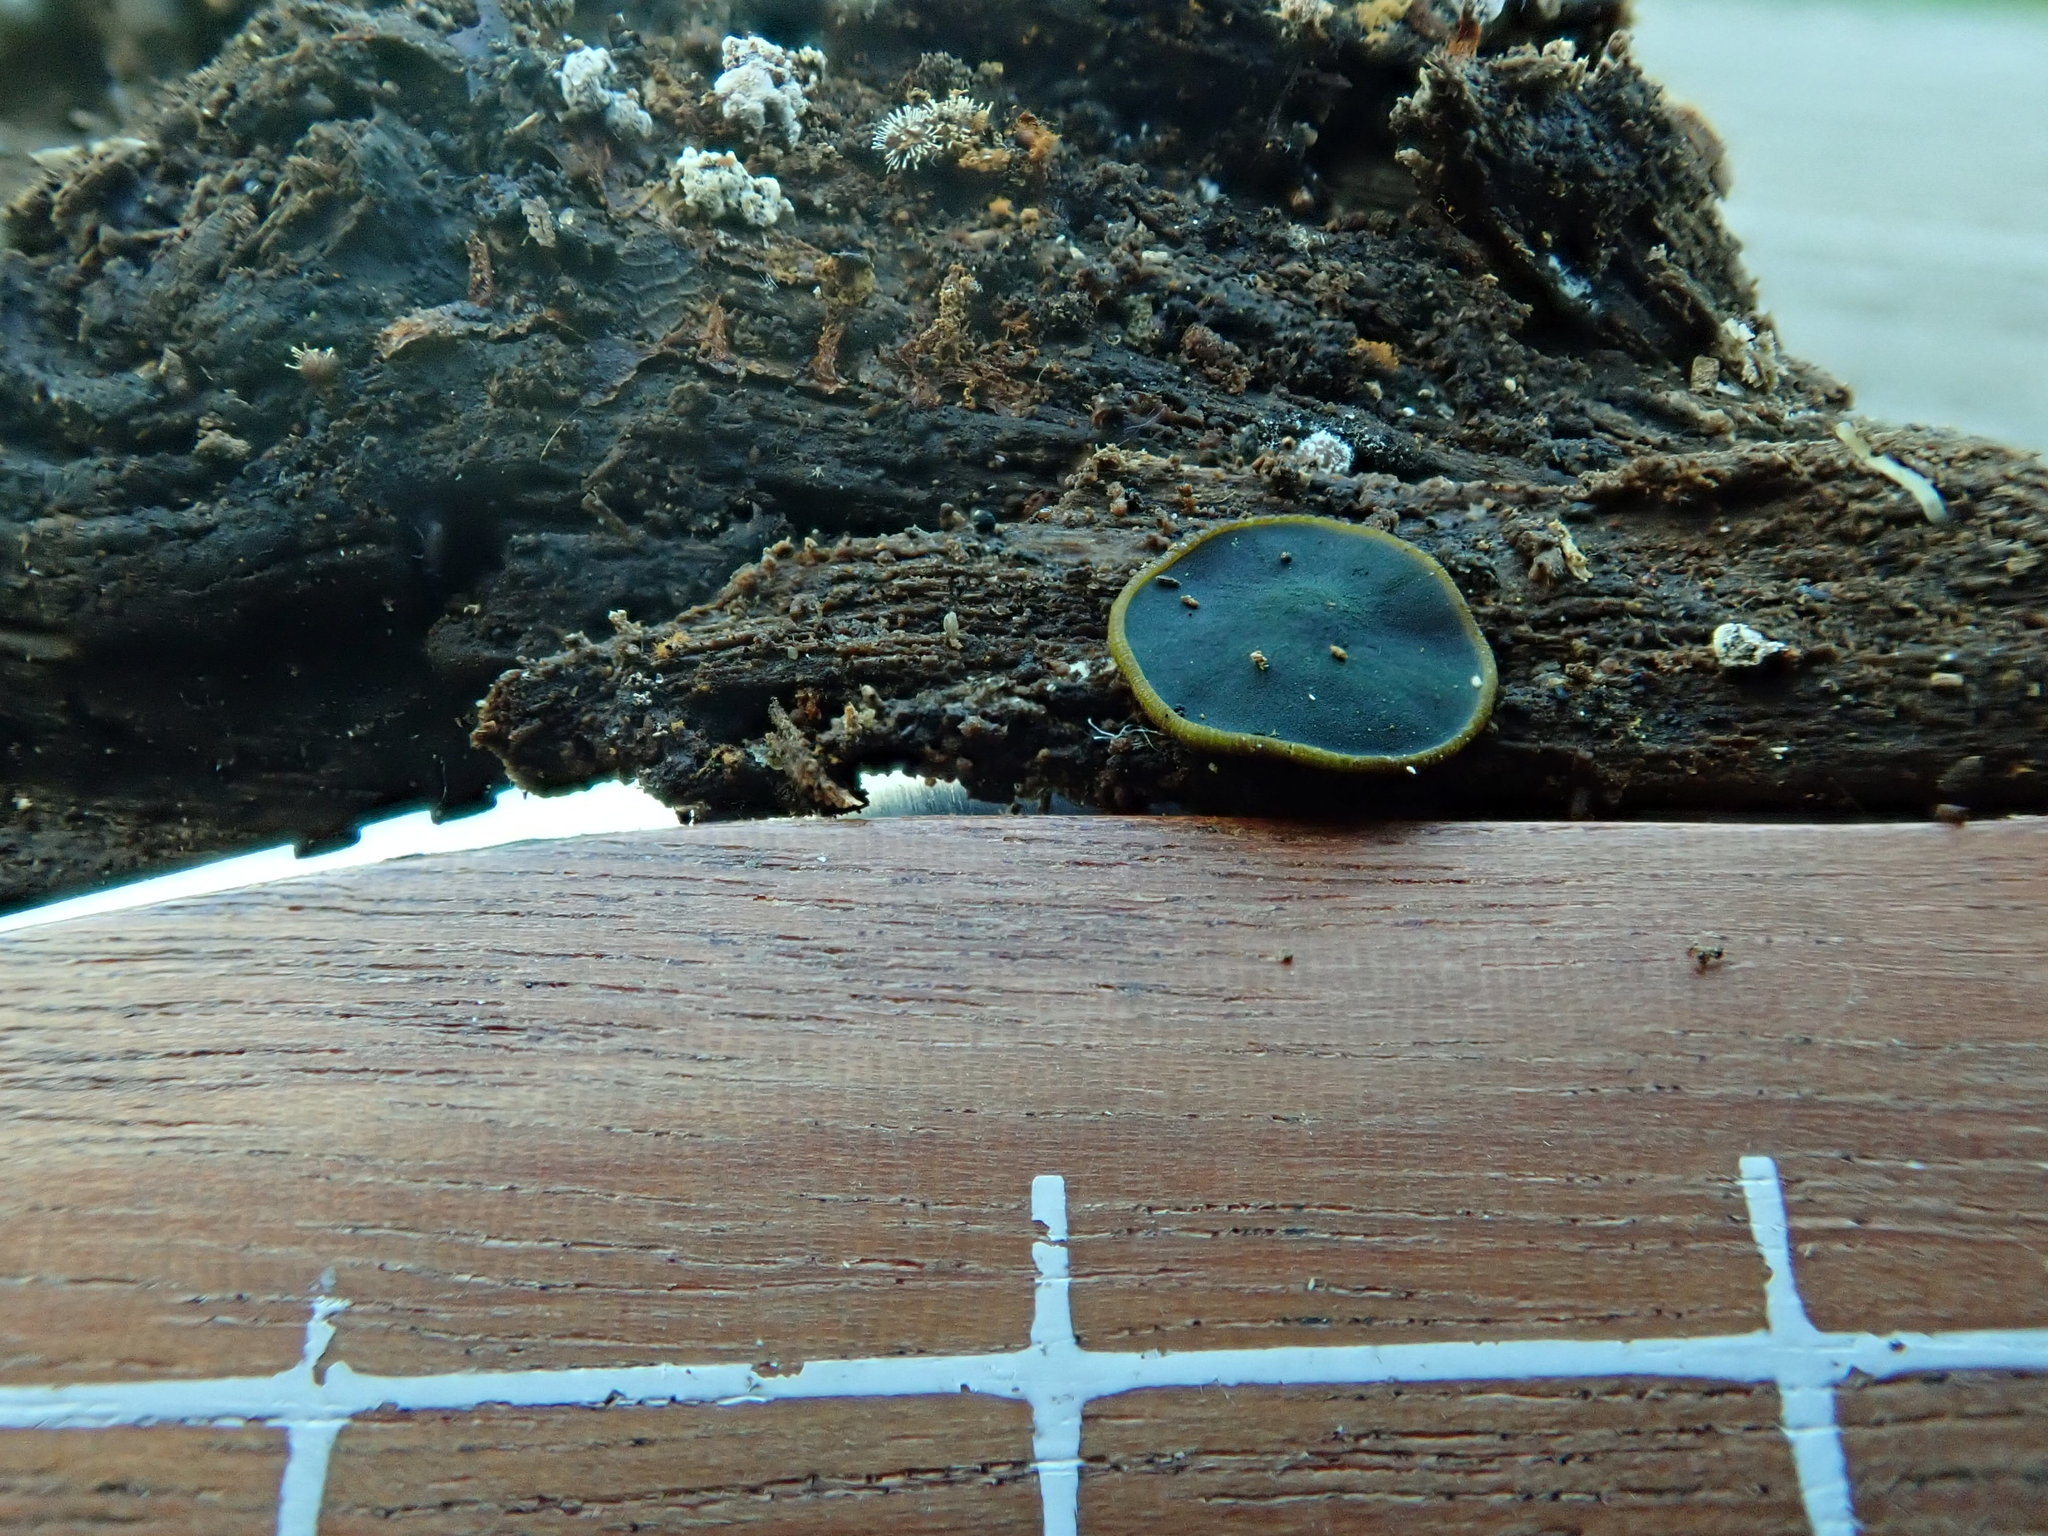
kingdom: Fungi
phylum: Ascomycota
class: Dothideomycetes
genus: Catinella
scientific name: Catinella olivacea
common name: Olive salver
